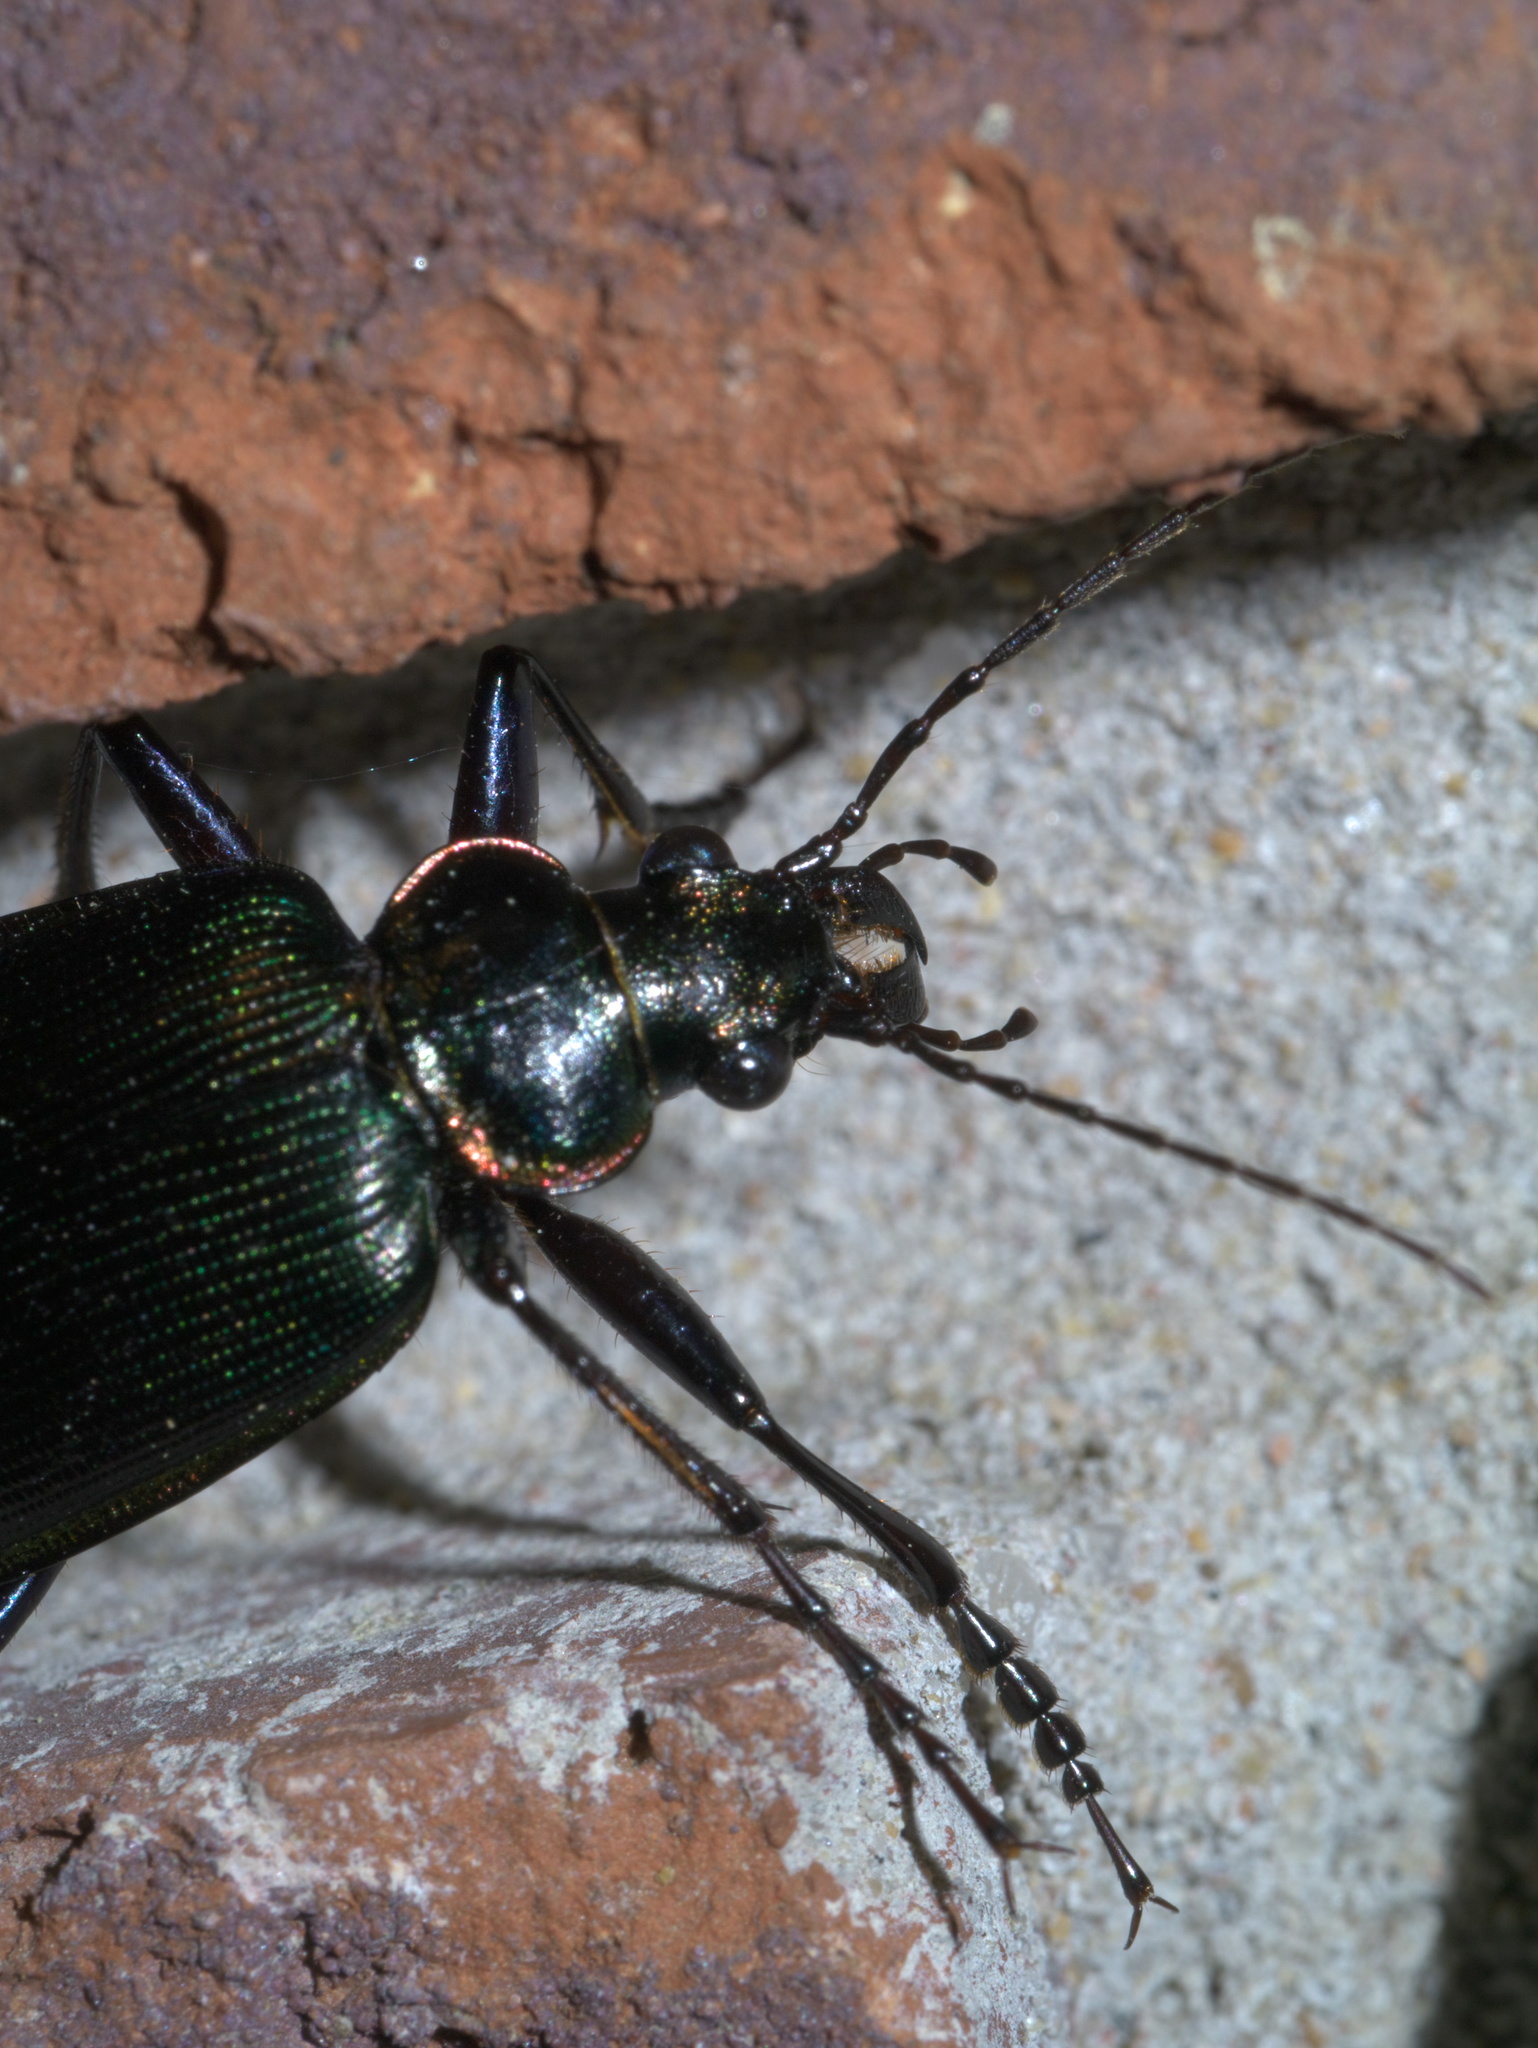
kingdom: Animalia
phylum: Arthropoda
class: Insecta
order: Coleoptera
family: Carabidae
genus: Calosoma
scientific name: Calosoma wilcoxi
